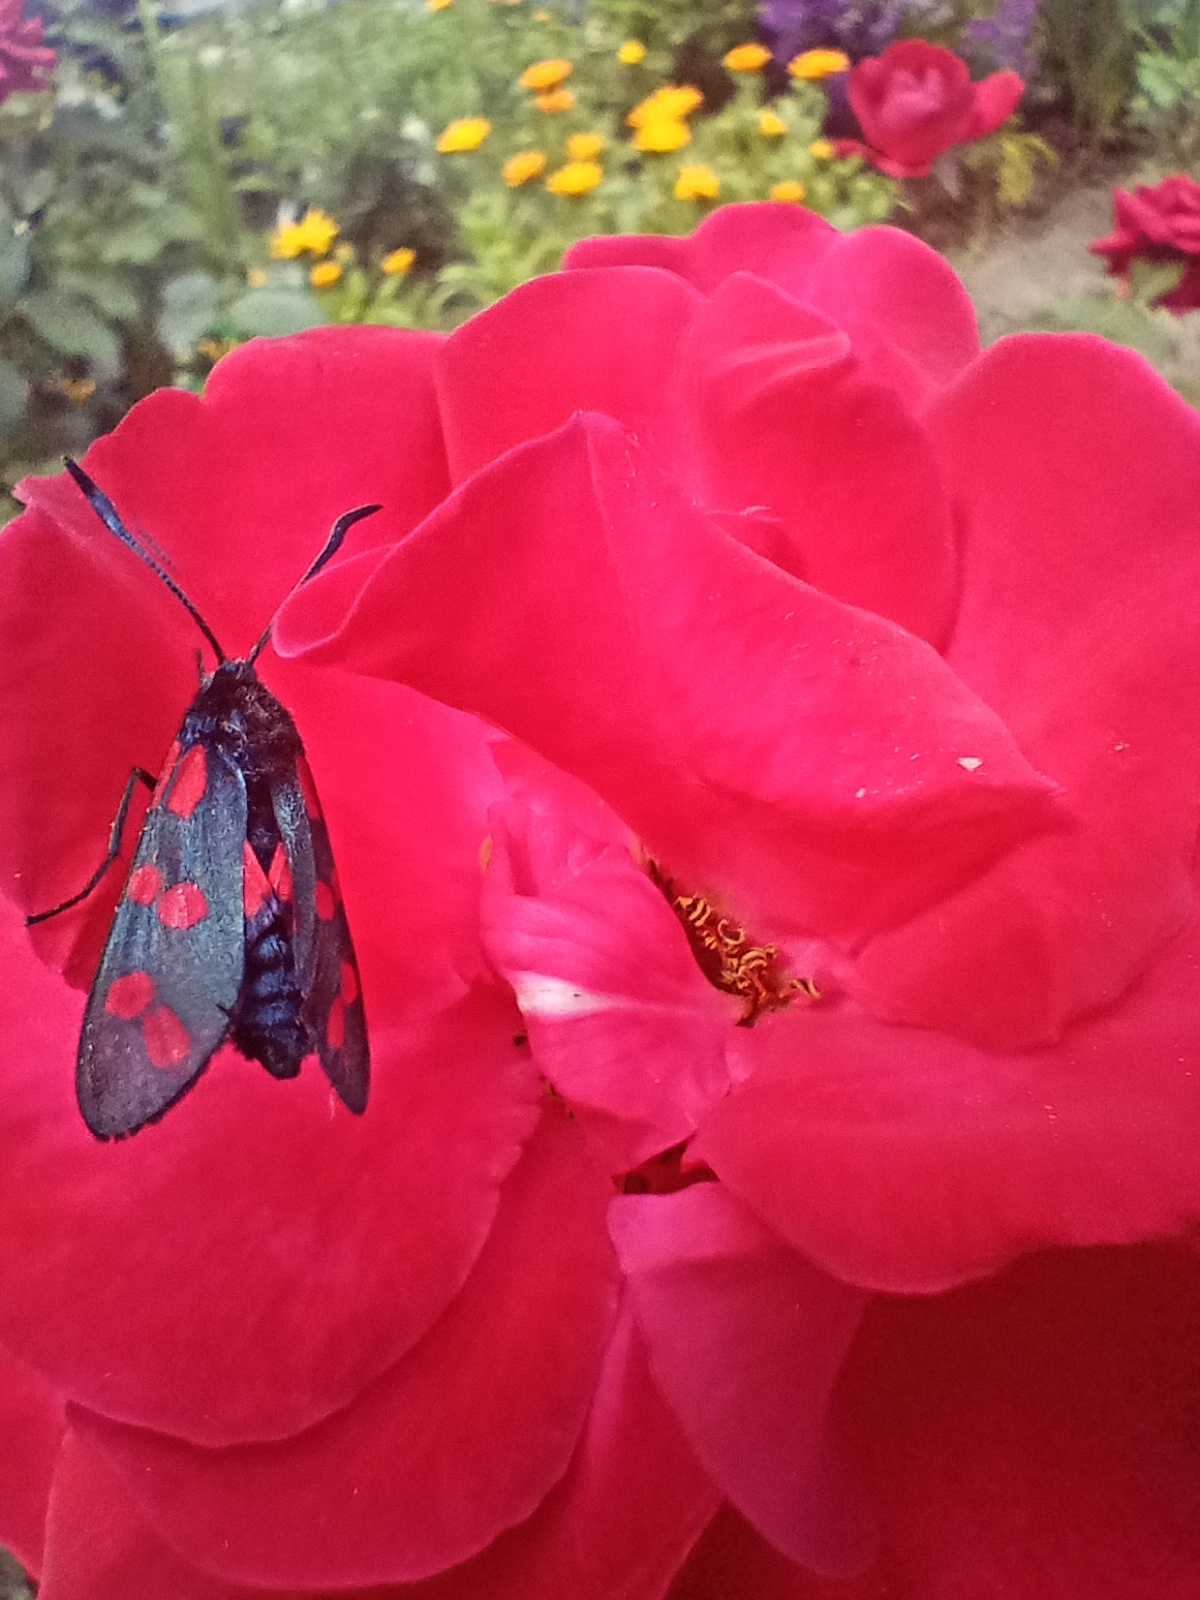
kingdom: Animalia
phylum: Arthropoda
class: Insecta
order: Lepidoptera
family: Zygaenidae
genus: Zygaena
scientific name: Zygaena filipendulae
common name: Six-spot burnet
